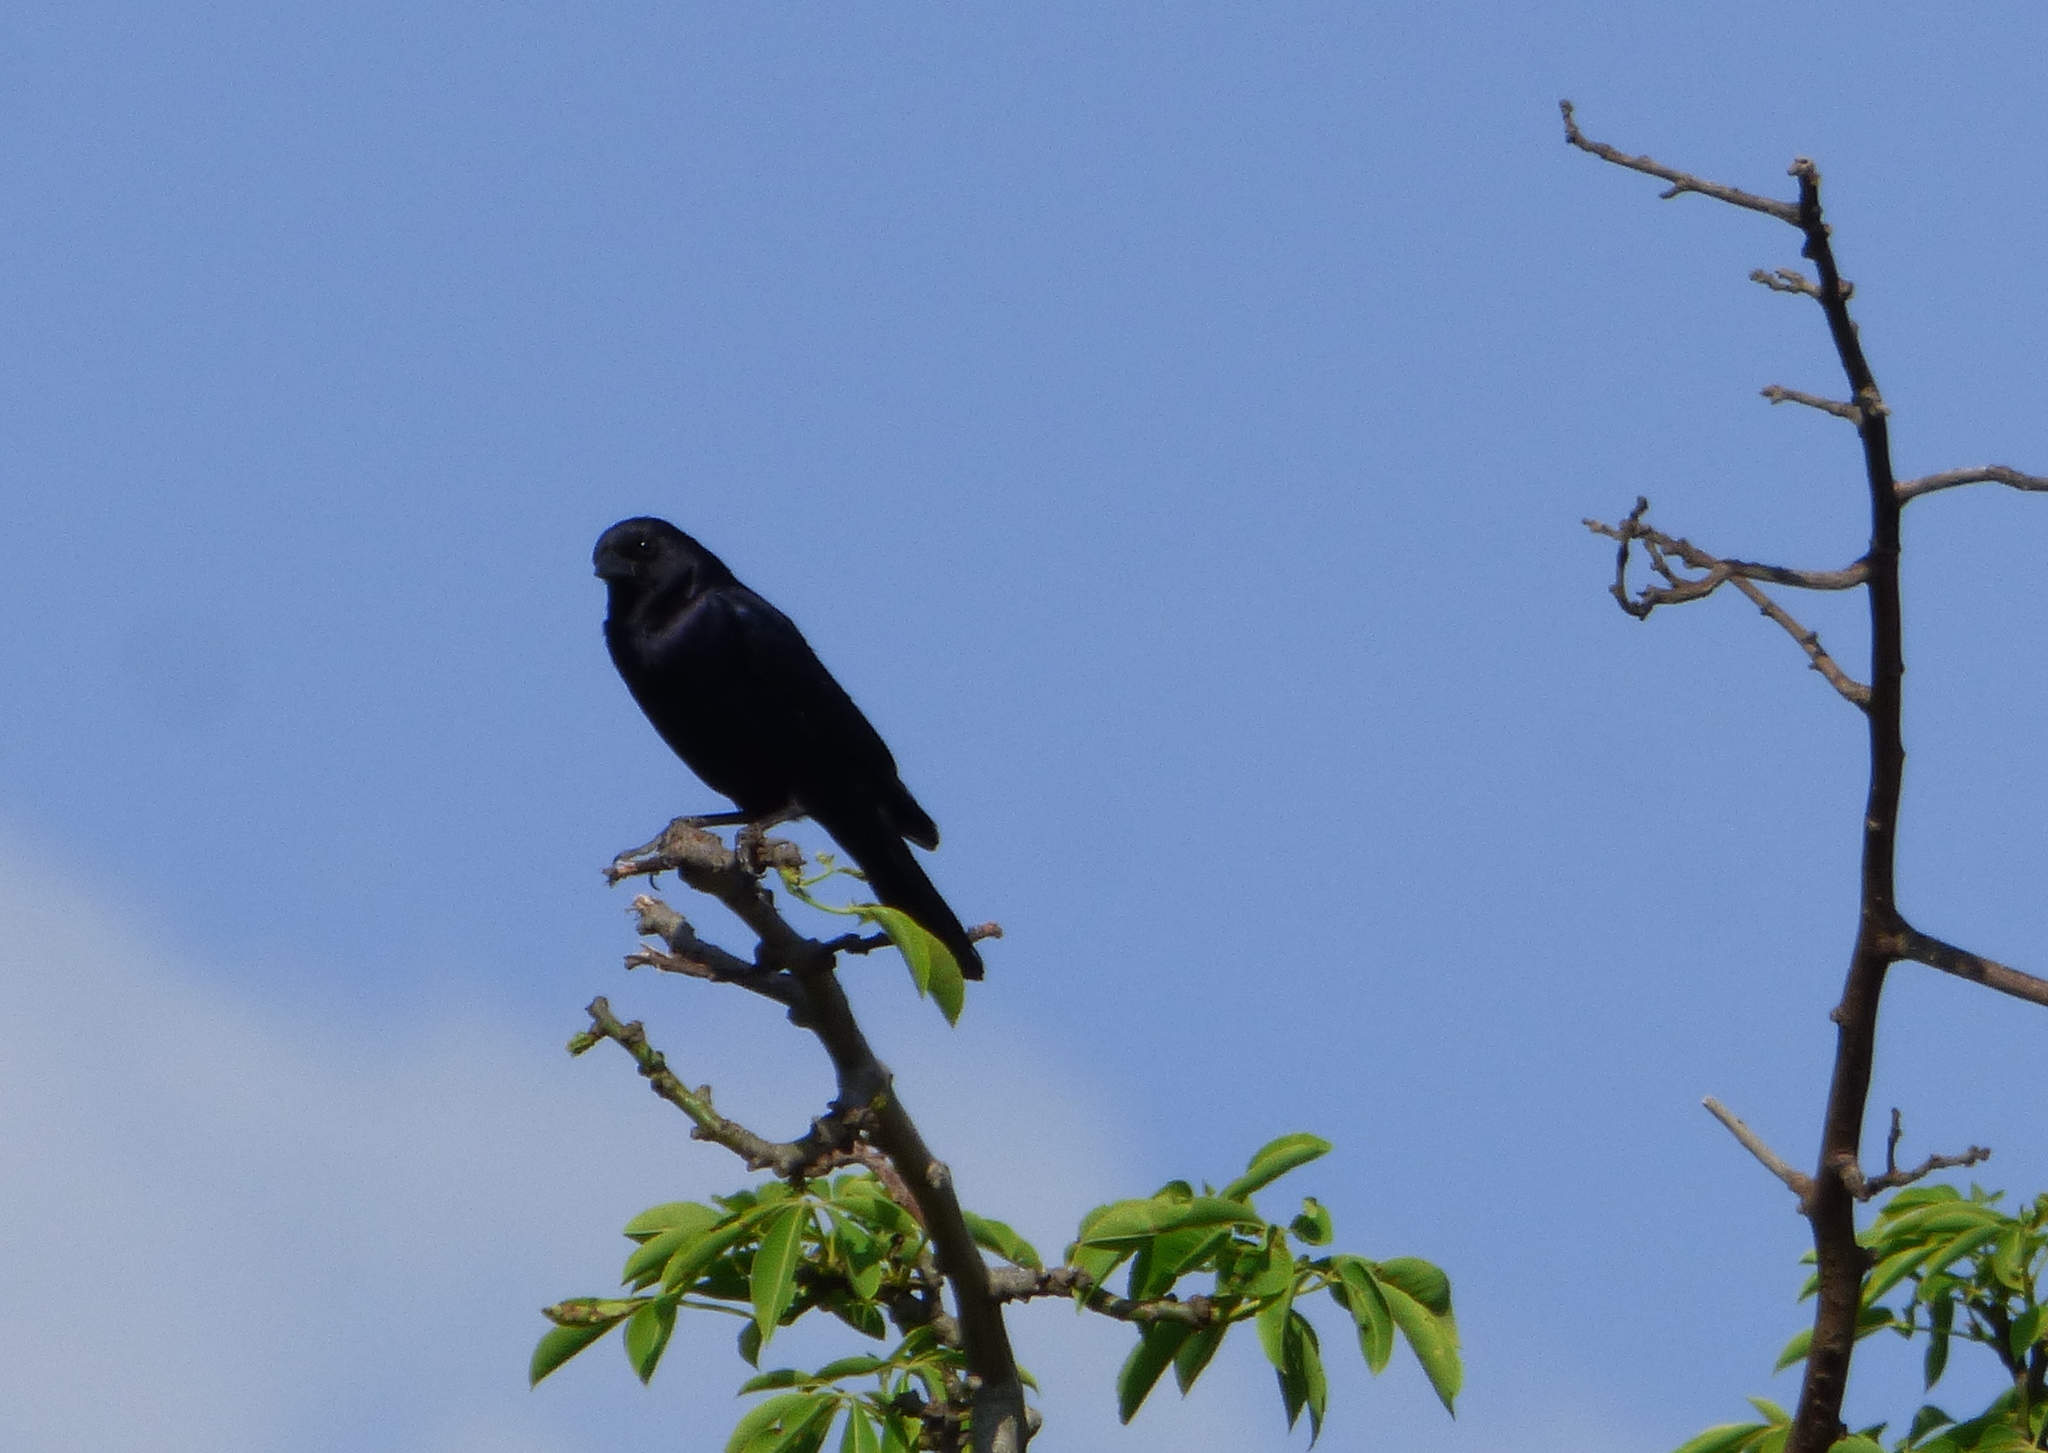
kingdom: Animalia
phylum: Chordata
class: Aves
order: Passeriformes
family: Icteridae
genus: Molothrus
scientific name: Molothrus bonariensis
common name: Shiny cowbird
